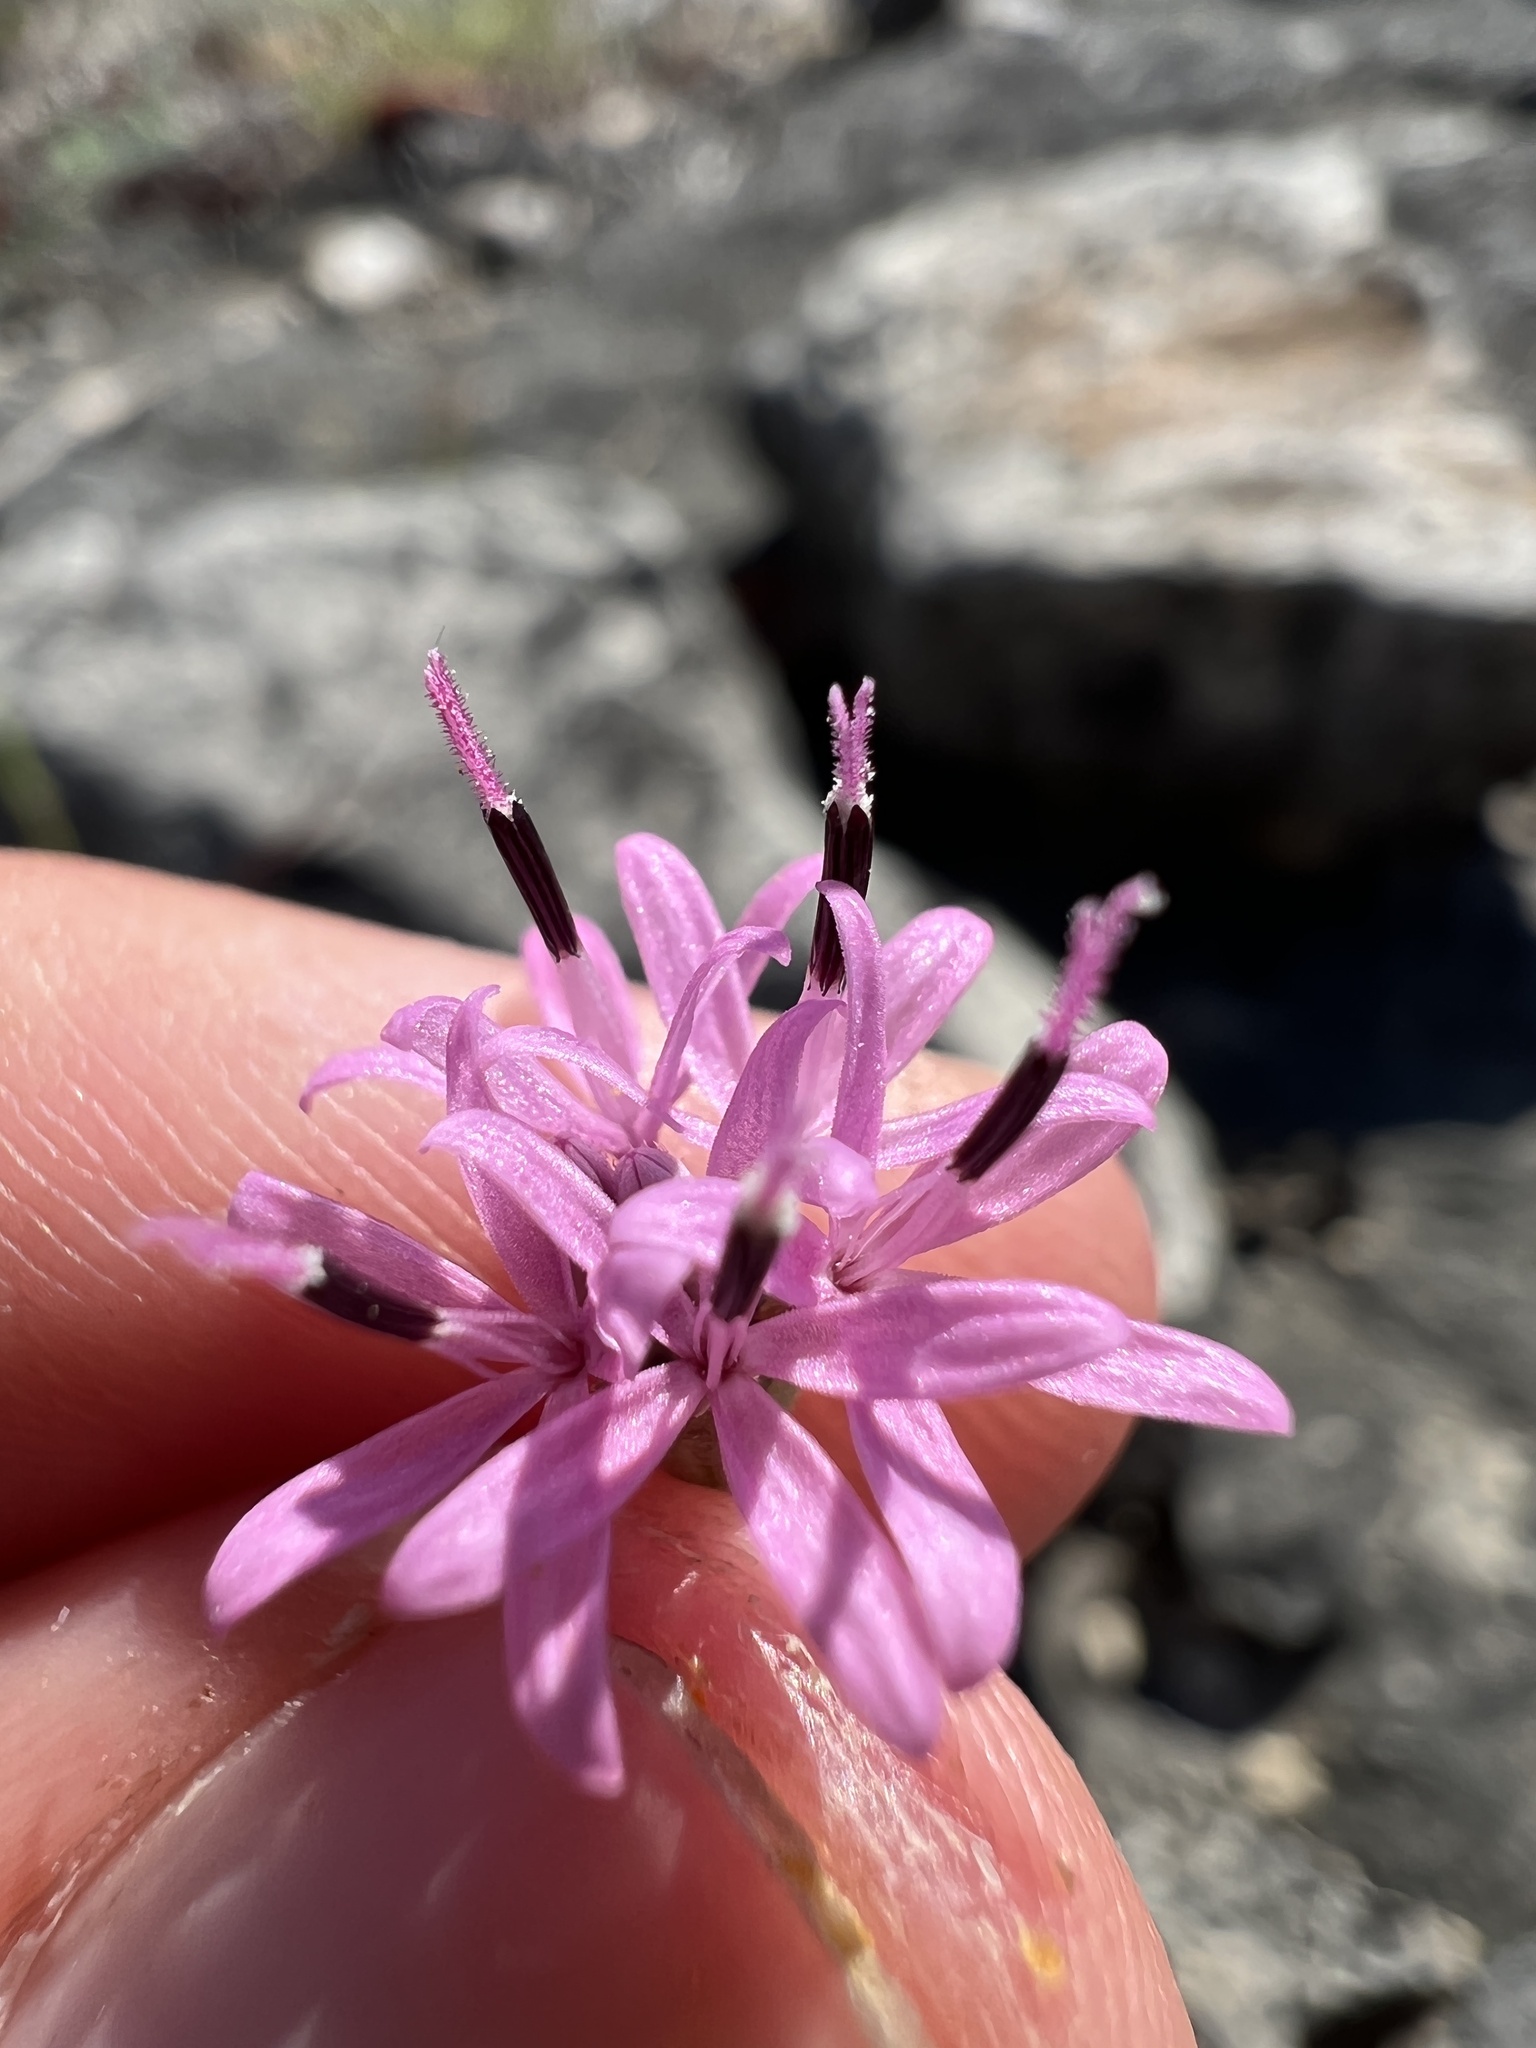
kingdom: Plantae
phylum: Tracheophyta
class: Magnoliopsida
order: Asterales
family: Asteraceae
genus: Palafoxia
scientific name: Palafoxia callosa
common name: Small palafox
